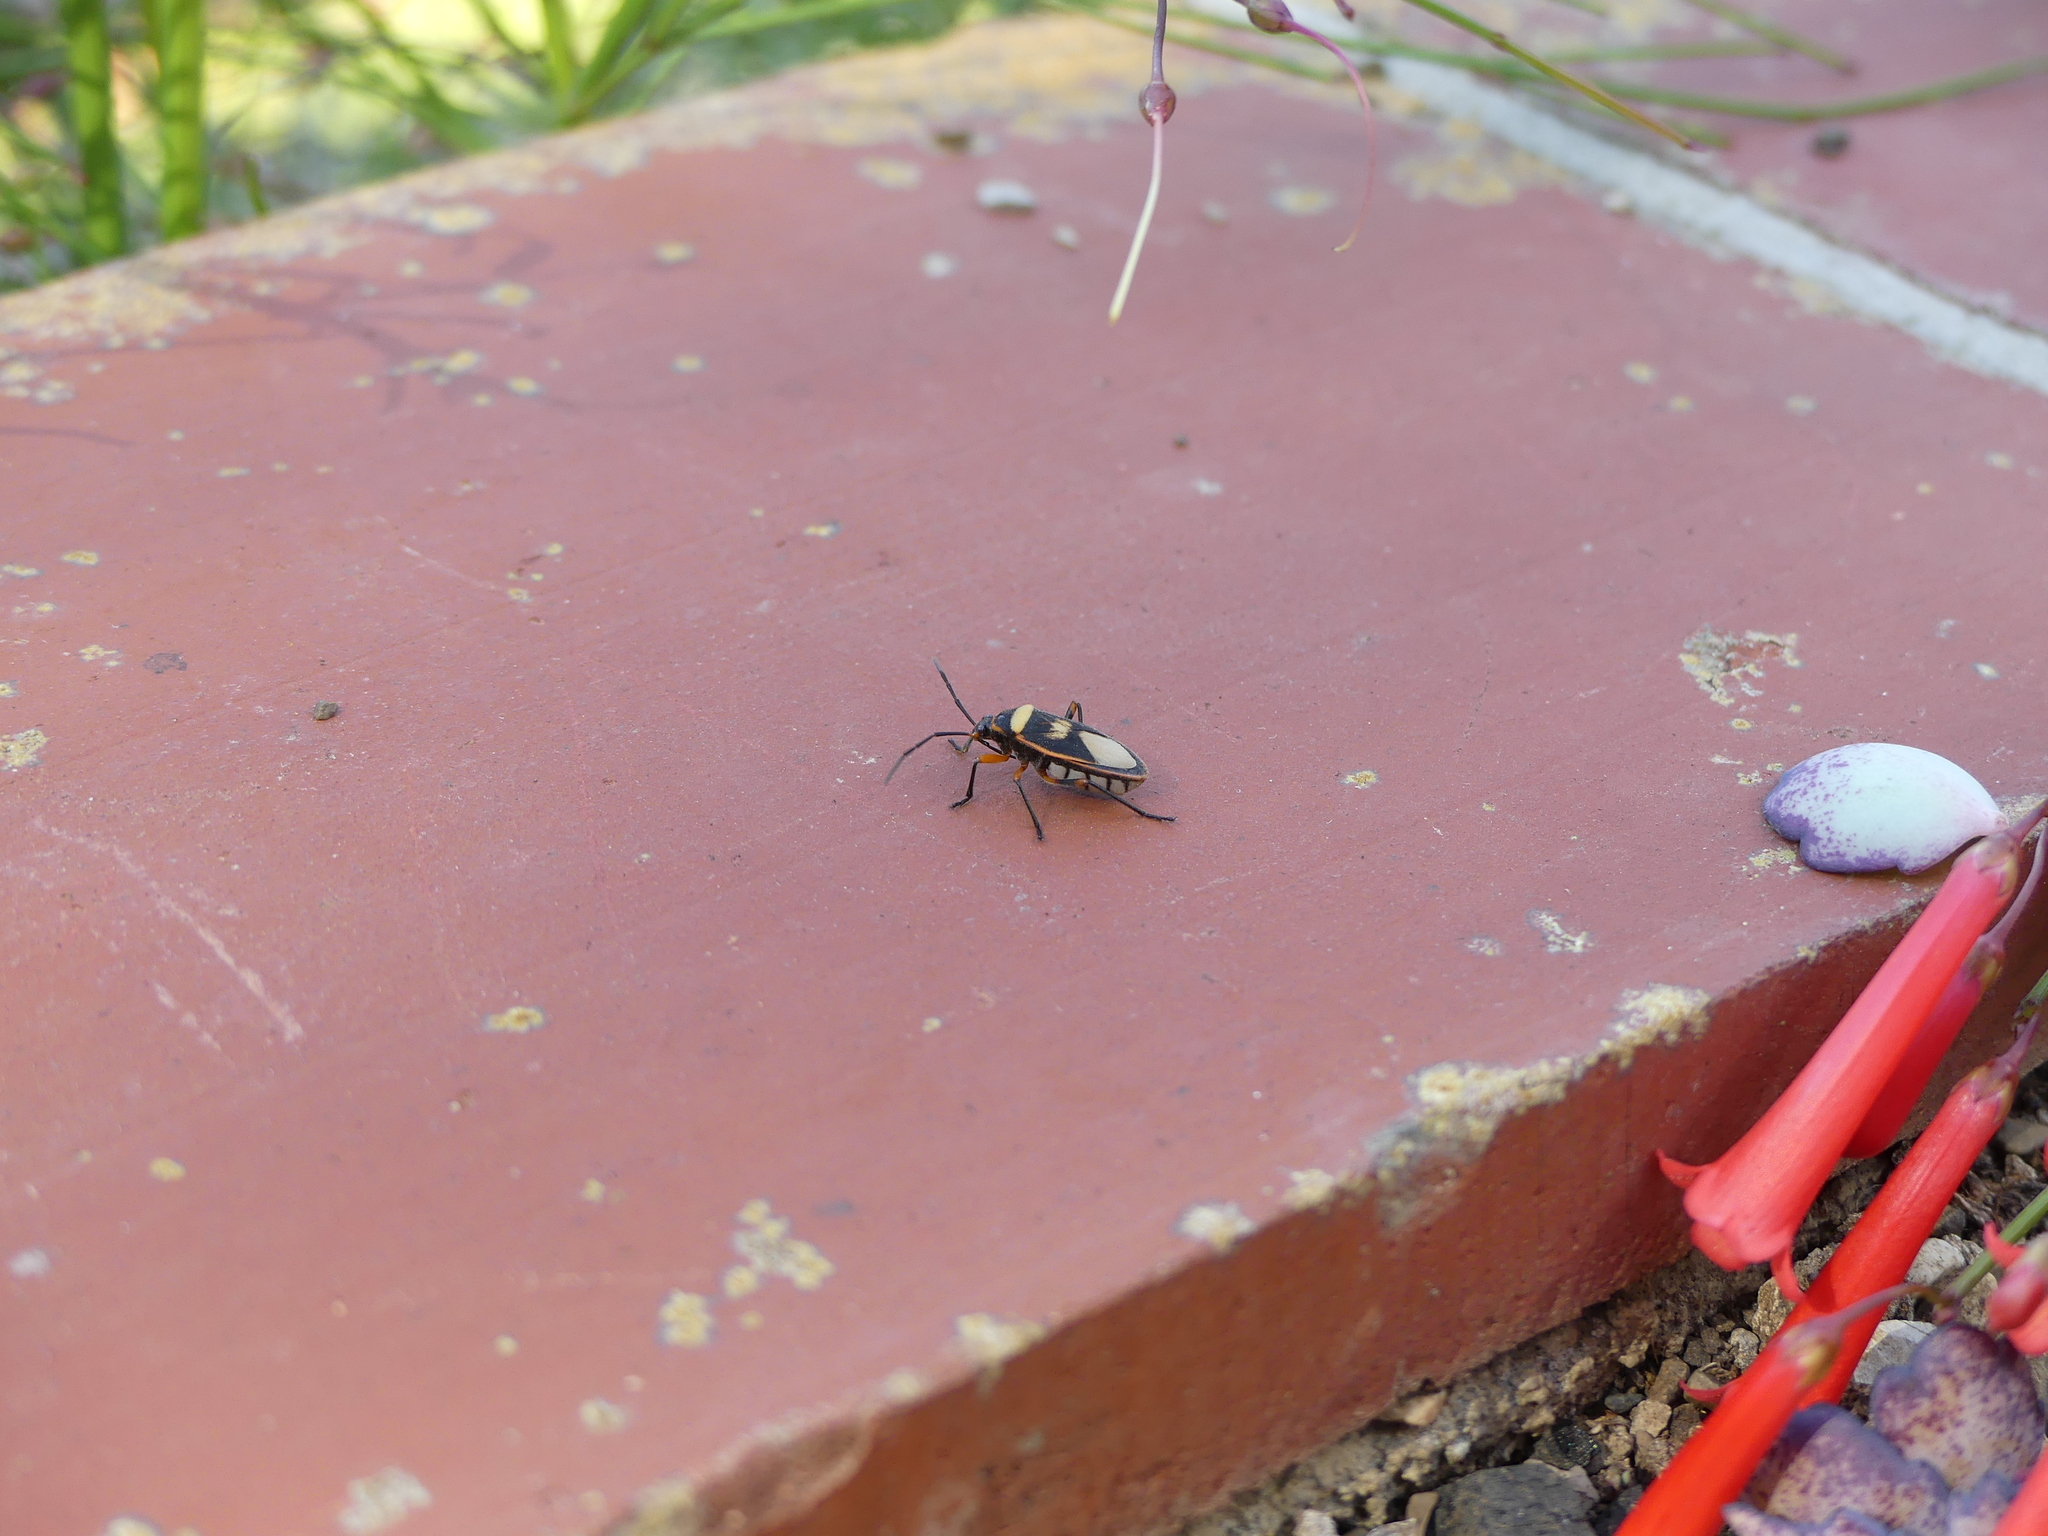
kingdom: Animalia
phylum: Arthropoda
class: Insecta
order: Hemiptera
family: Largidae
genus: Largus
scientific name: Largus sellatus
